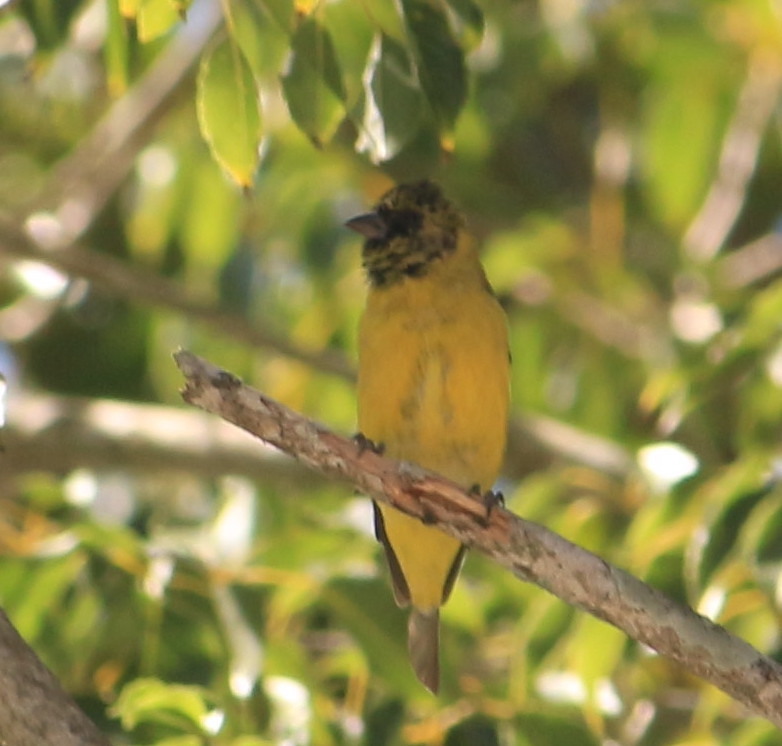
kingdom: Animalia
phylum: Chordata
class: Aves
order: Passeriformes
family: Fringillidae
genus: Spinus
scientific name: Spinus magellanicus
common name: Hooded siskin
